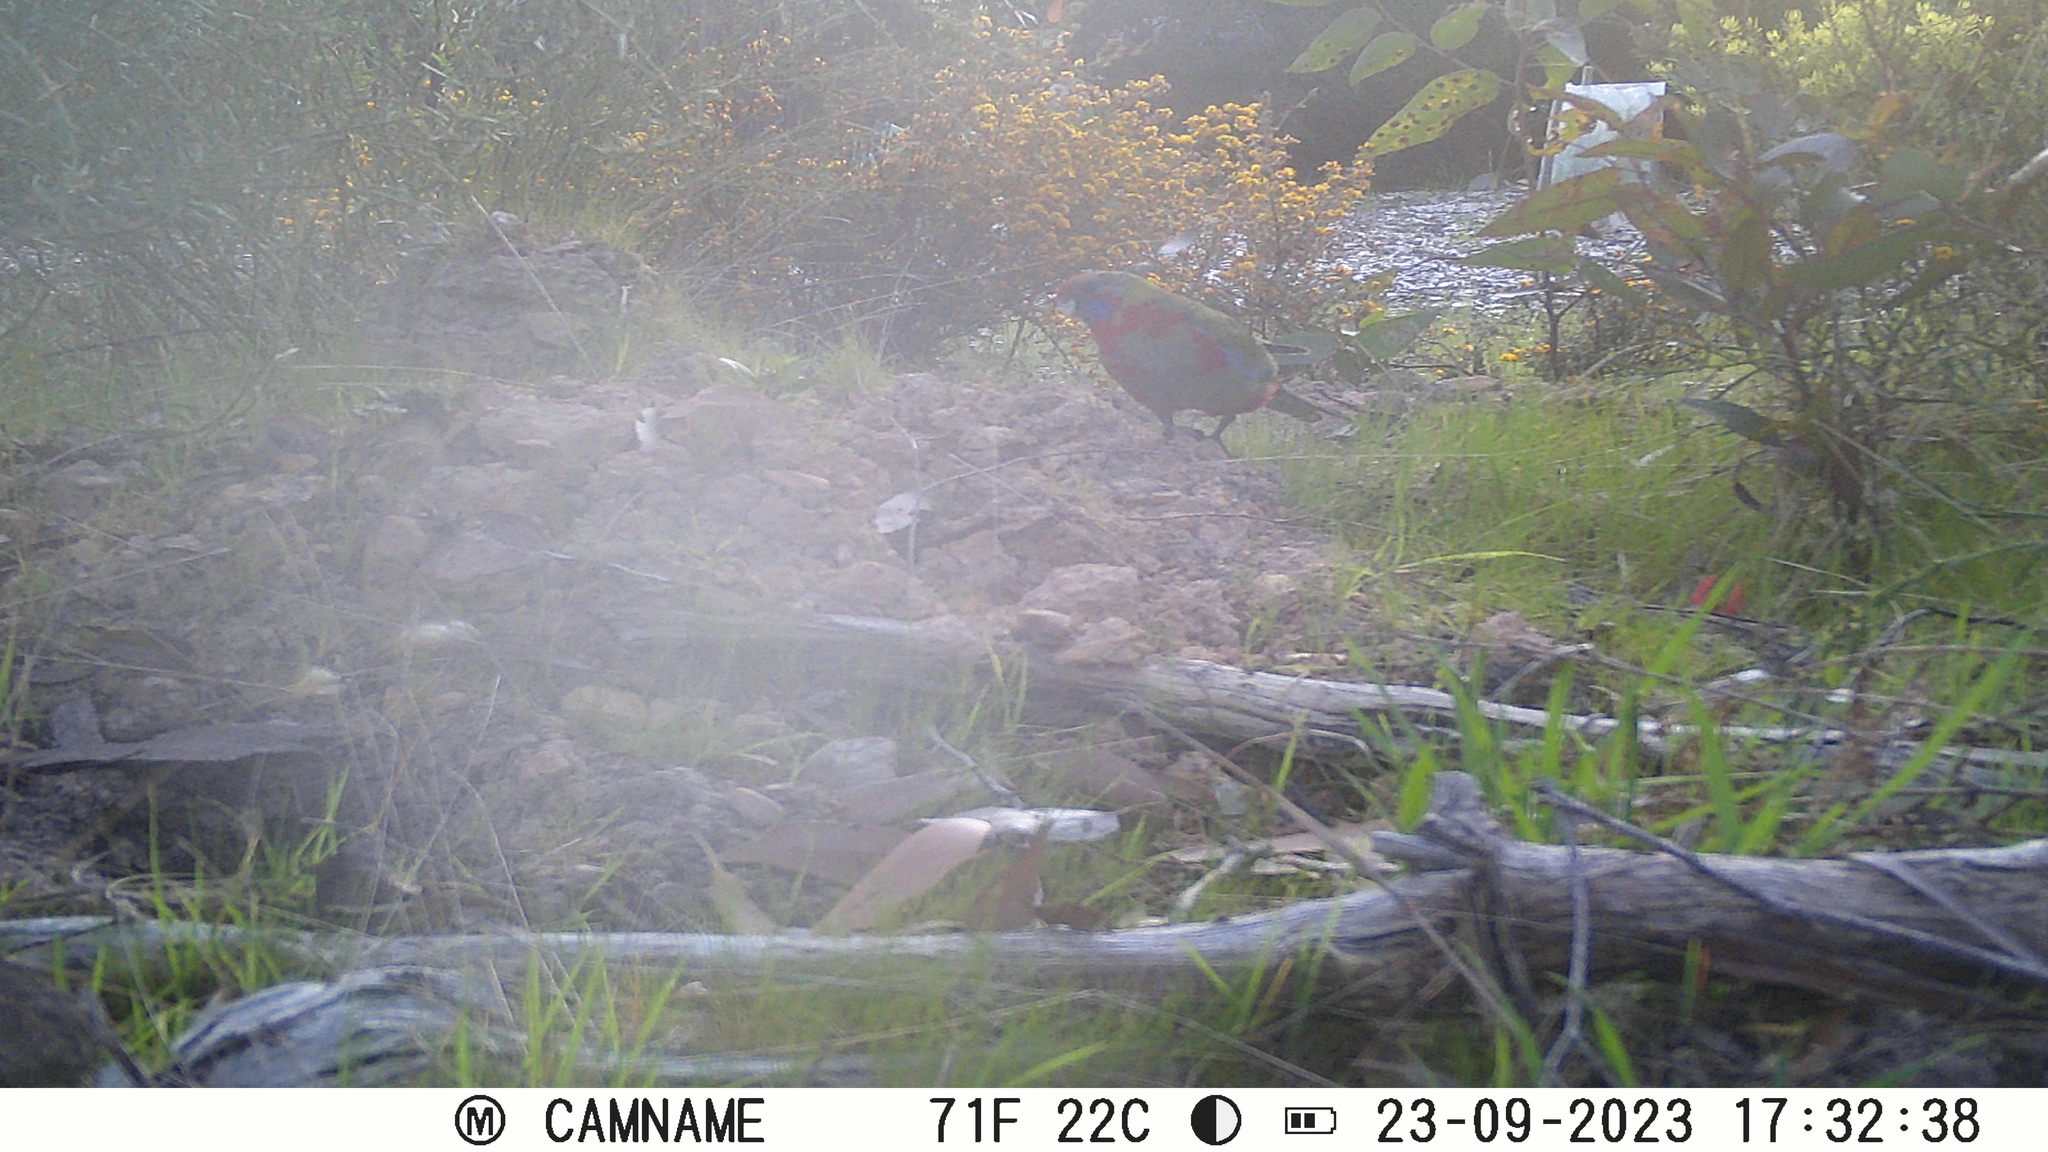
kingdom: Animalia
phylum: Chordata
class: Aves
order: Psittaciformes
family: Psittacidae
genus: Platycercus
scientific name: Platycercus elegans
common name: Crimson rosella
